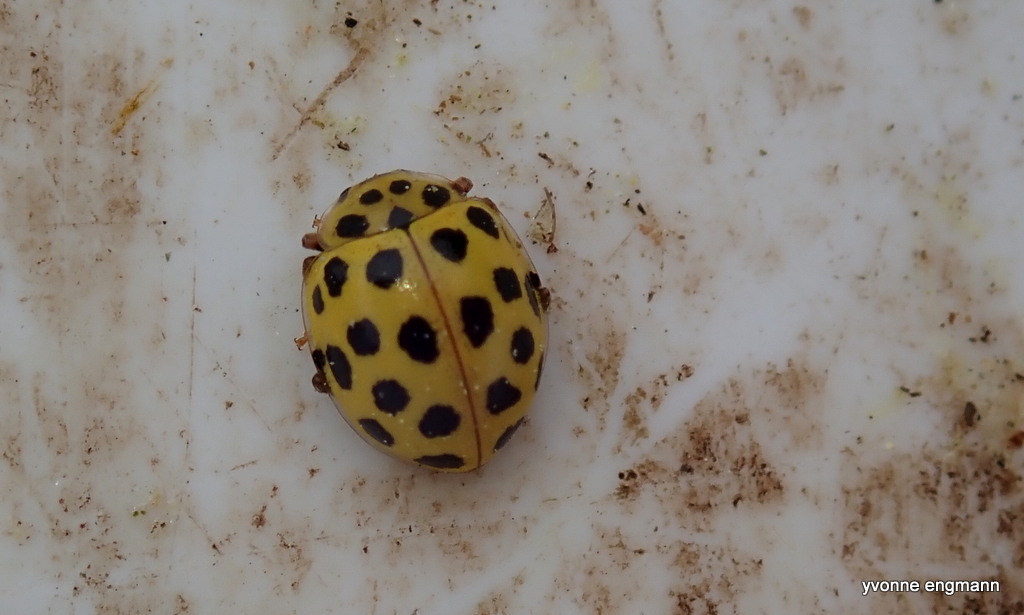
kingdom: Animalia
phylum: Arthropoda
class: Insecta
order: Coleoptera
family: Coccinellidae
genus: Psyllobora
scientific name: Psyllobora vigintiduopunctata
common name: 22-spot ladybird
